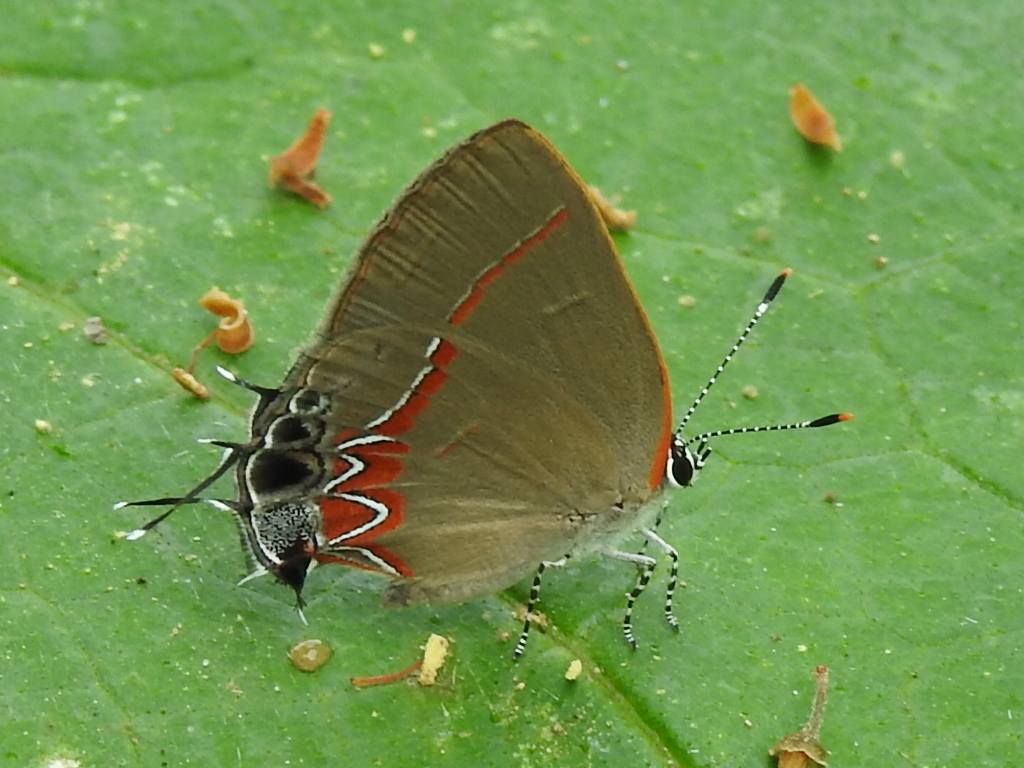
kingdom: Animalia
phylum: Arthropoda
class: Insecta
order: Lepidoptera
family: Lycaenidae
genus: Calycopis
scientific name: Calycopis isobeon
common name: Dusky-blue groundstreak
